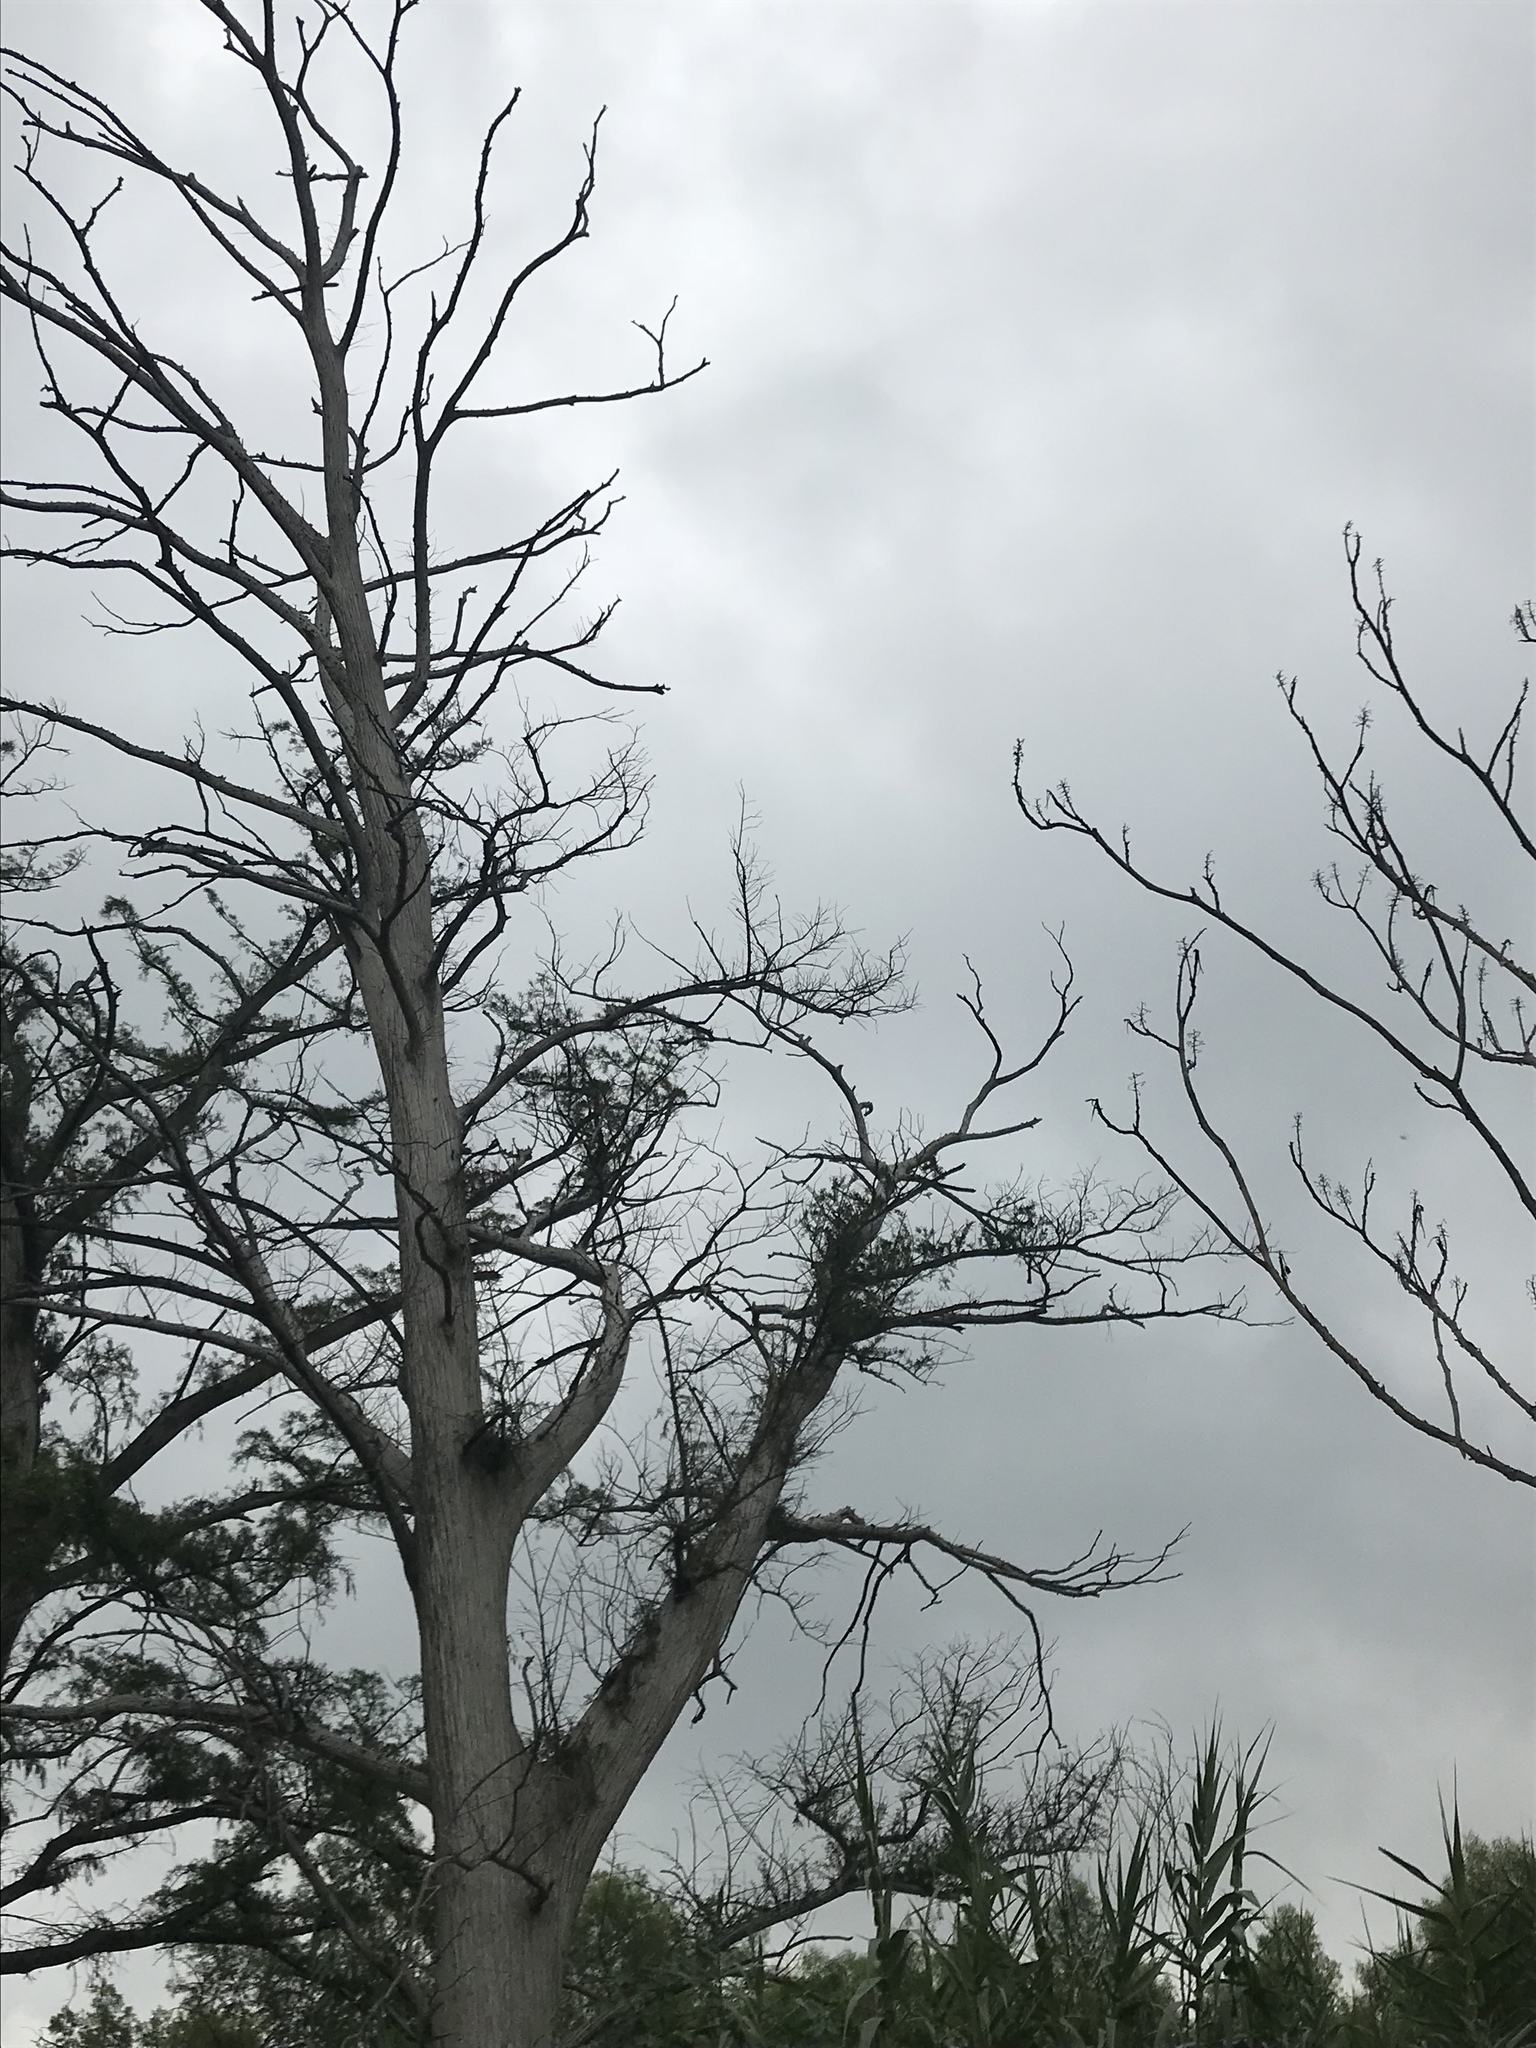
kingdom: Plantae
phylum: Tracheophyta
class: Pinopsida
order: Pinales
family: Cupressaceae
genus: Taxodium
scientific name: Taxodium mucronatum
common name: Montezume bald cypress
